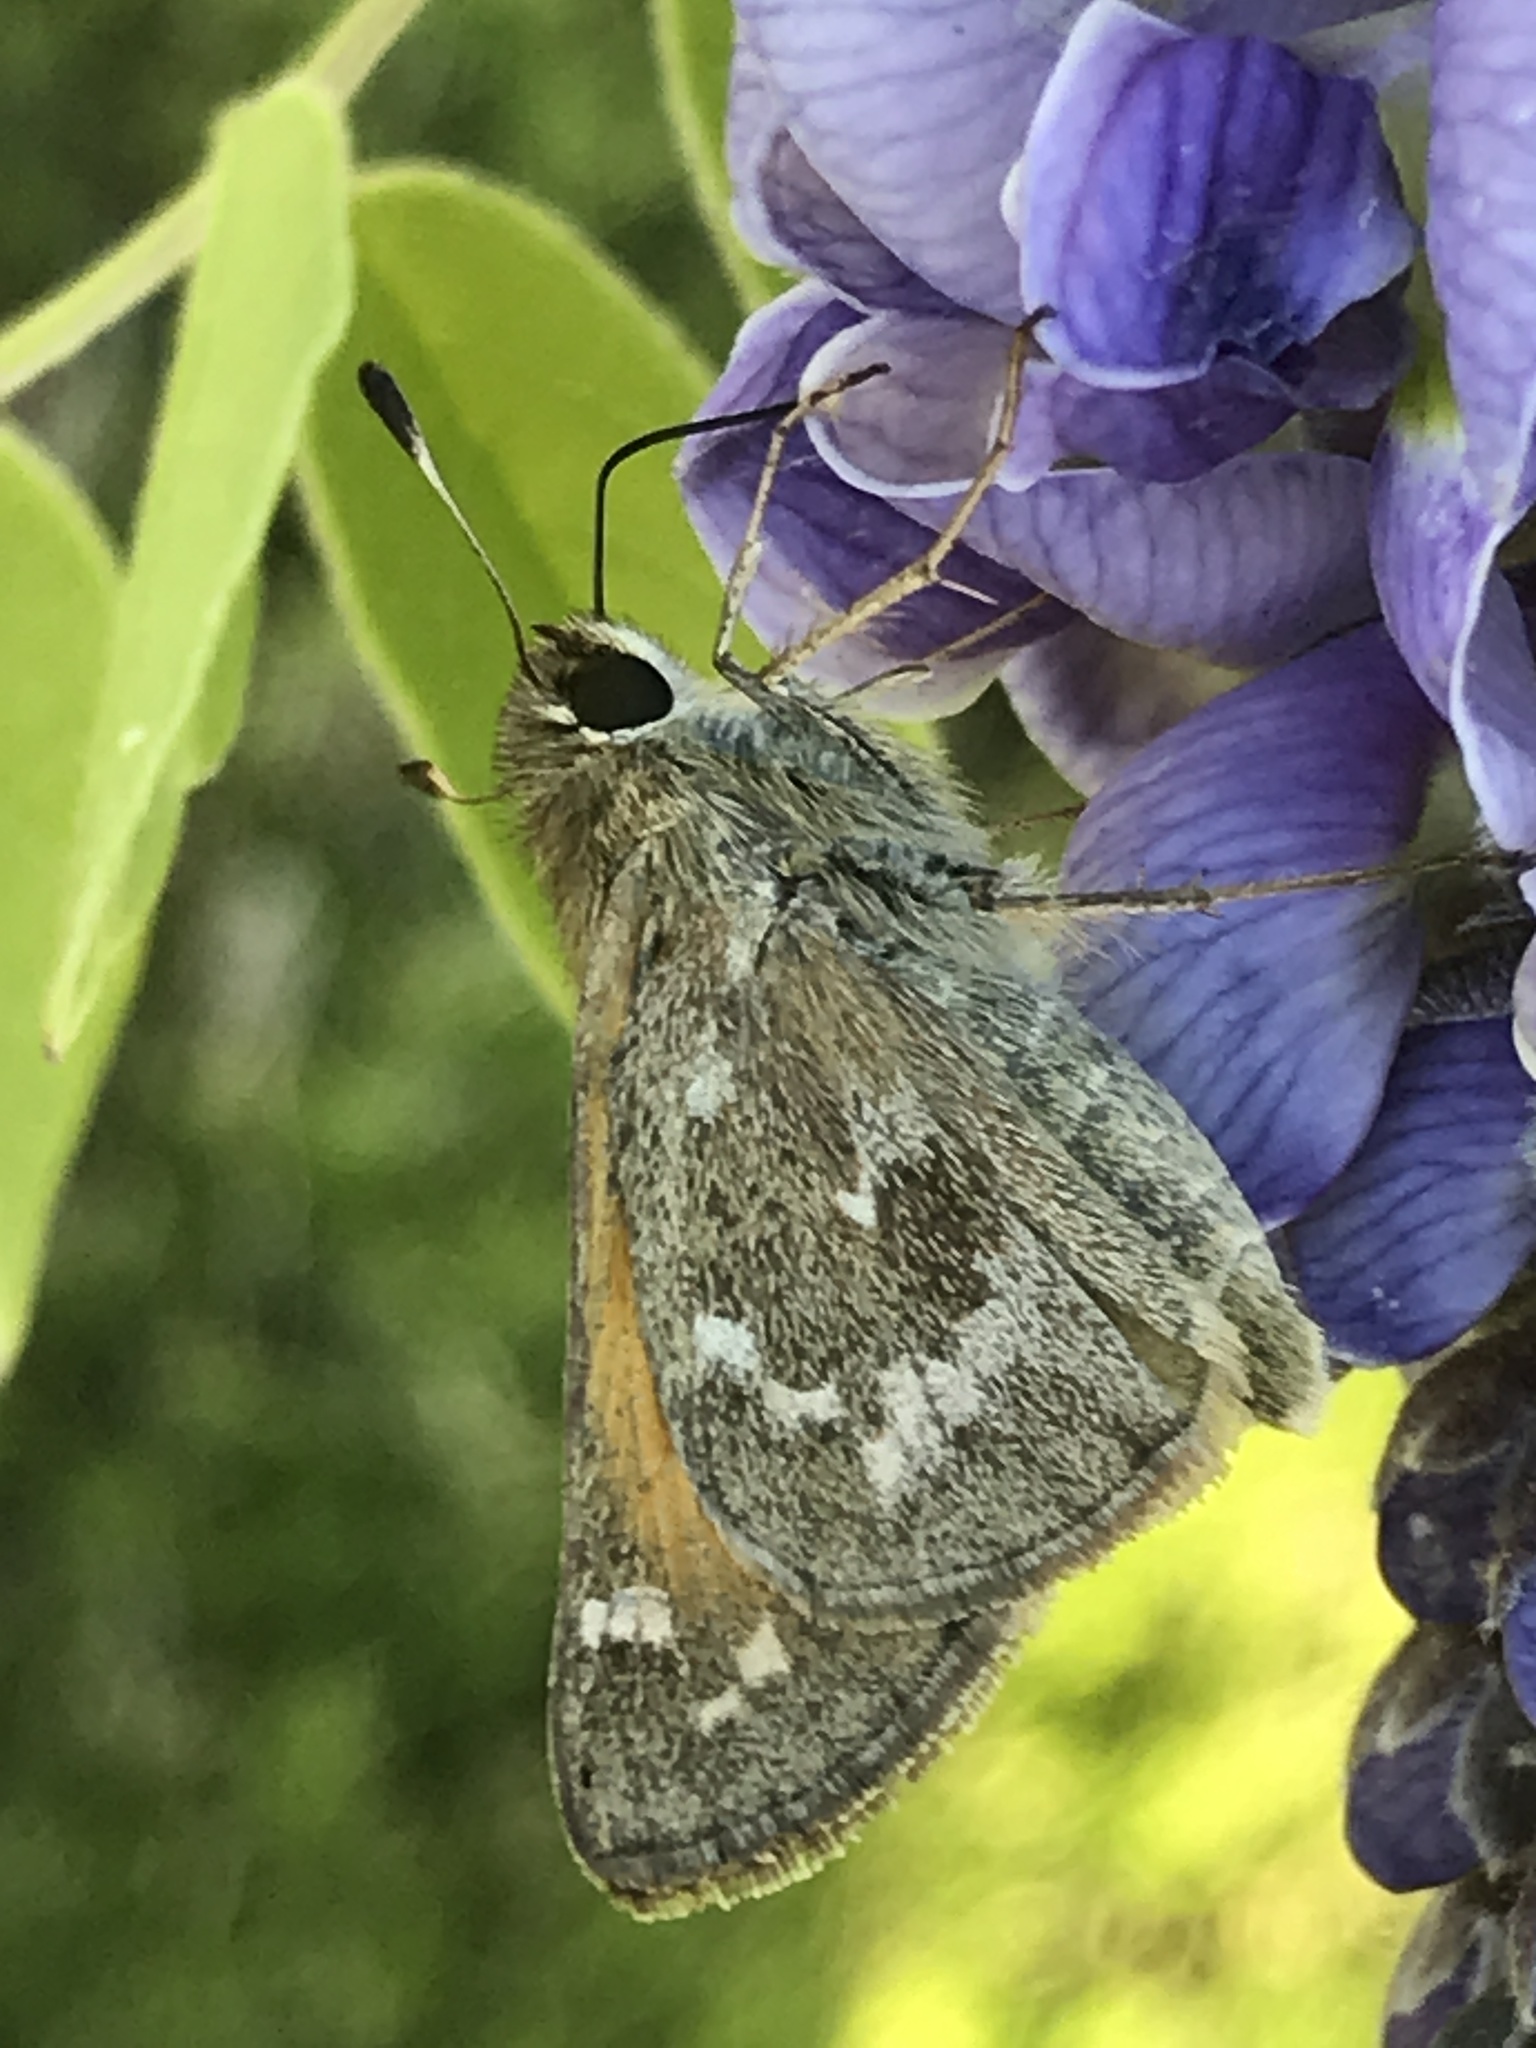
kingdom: Animalia
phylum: Arthropoda
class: Insecta
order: Lepidoptera
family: Hesperiidae
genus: Atalopedes
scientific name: Atalopedes
